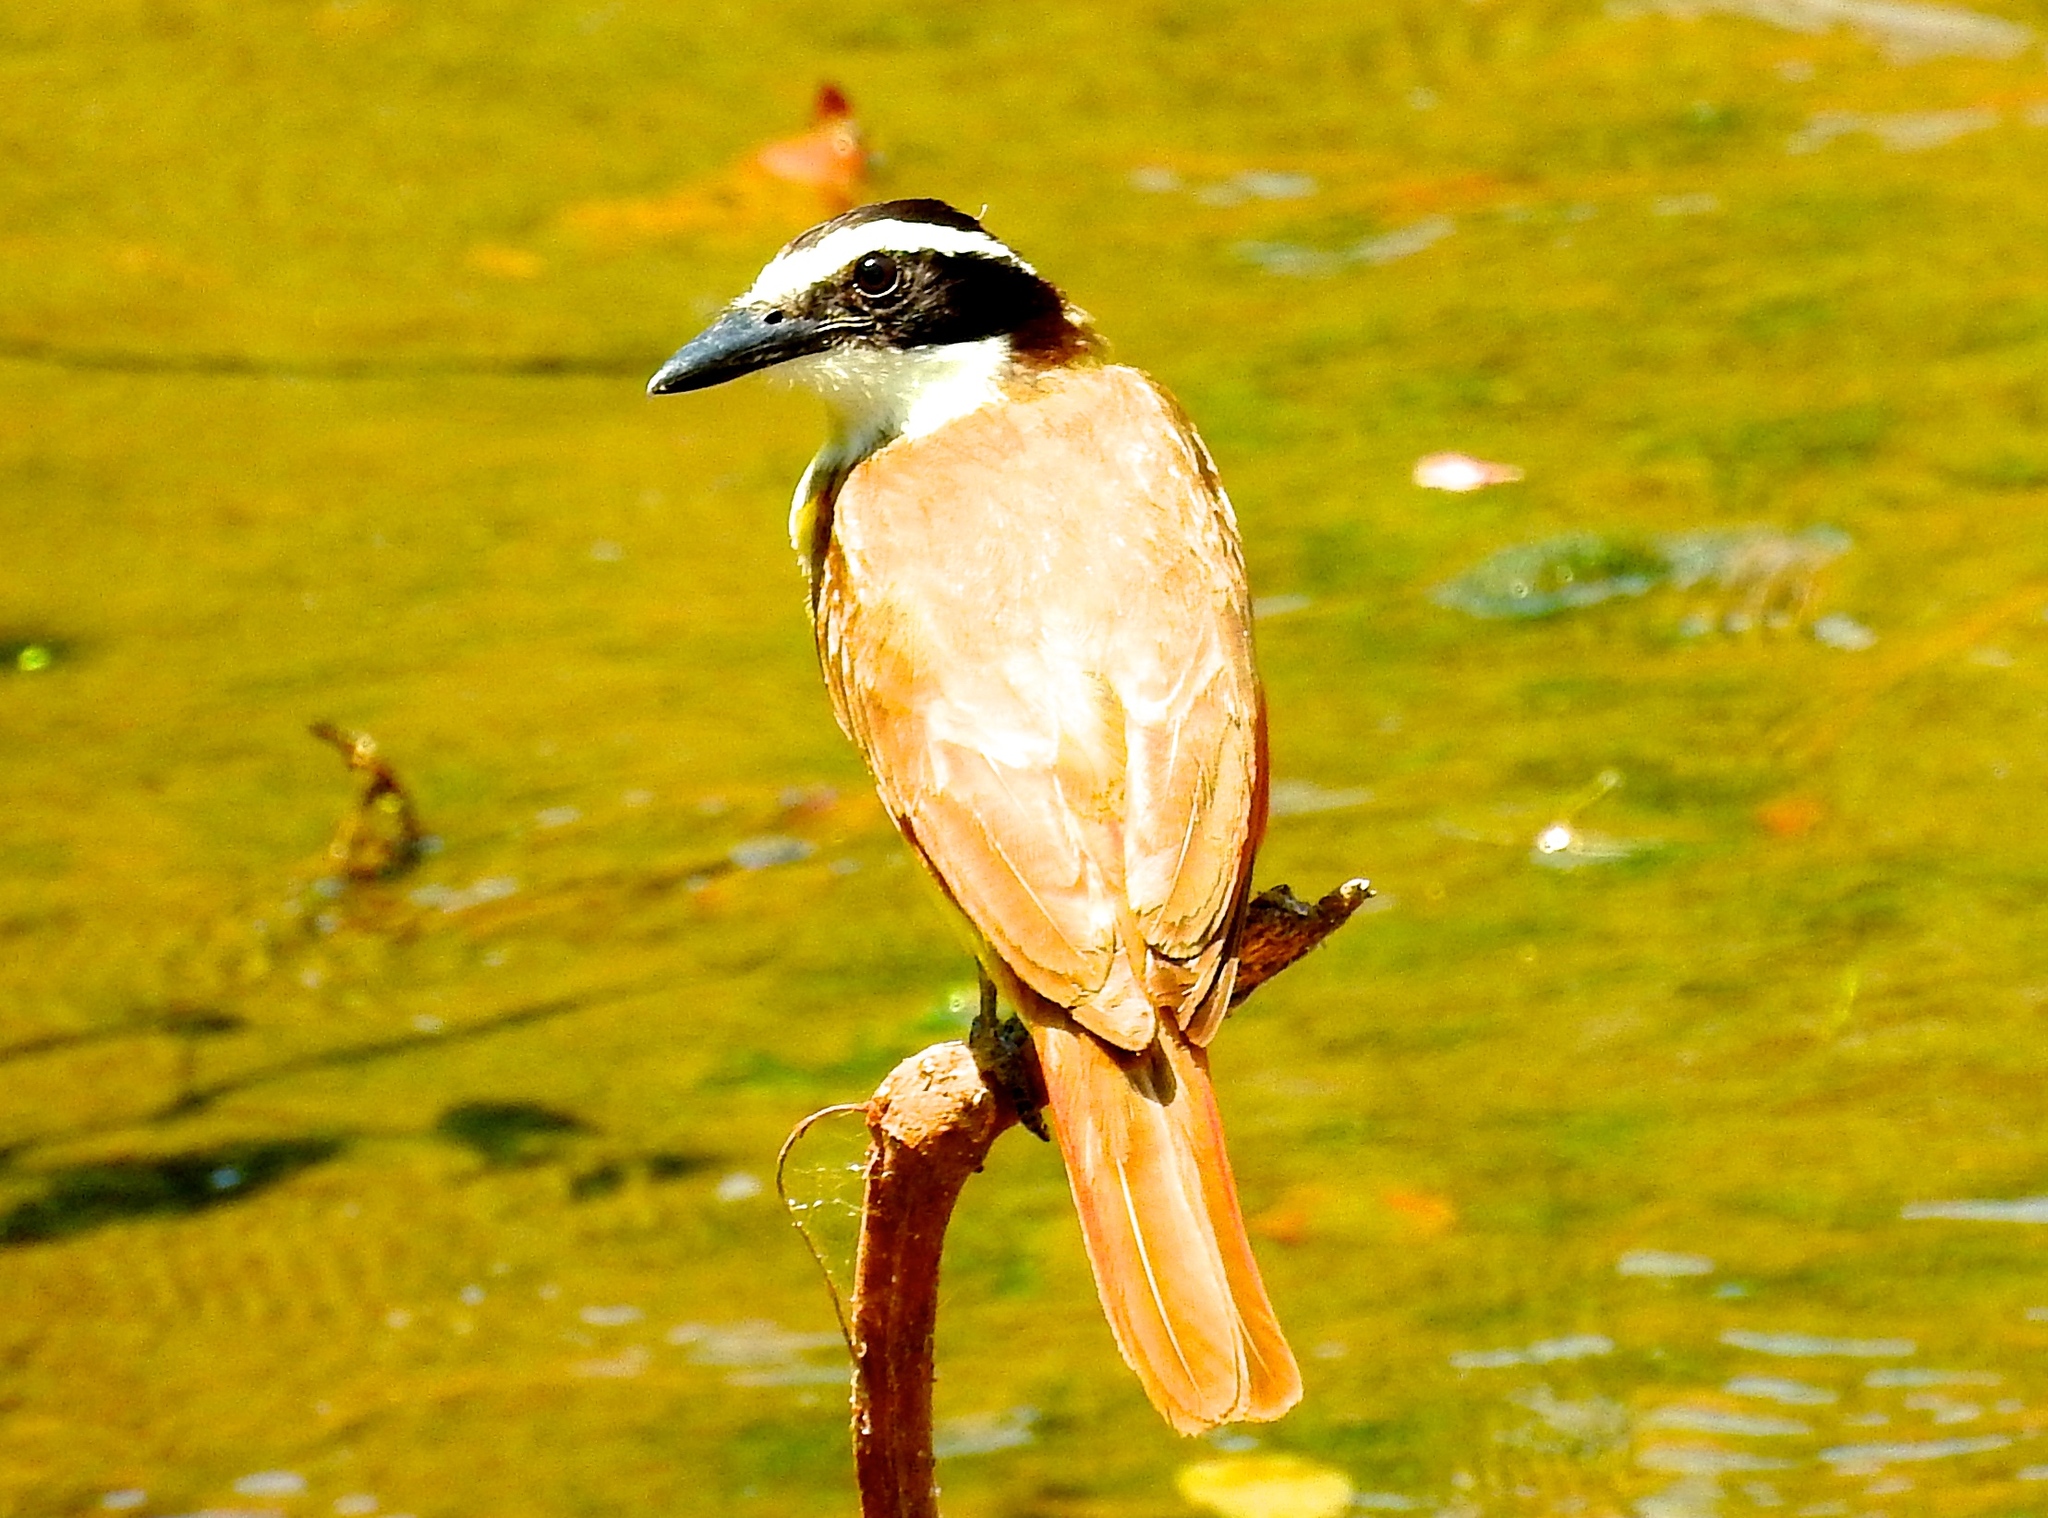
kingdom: Animalia
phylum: Chordata
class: Aves
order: Passeriformes
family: Tyrannidae
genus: Pitangus
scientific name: Pitangus sulphuratus
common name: Great kiskadee
